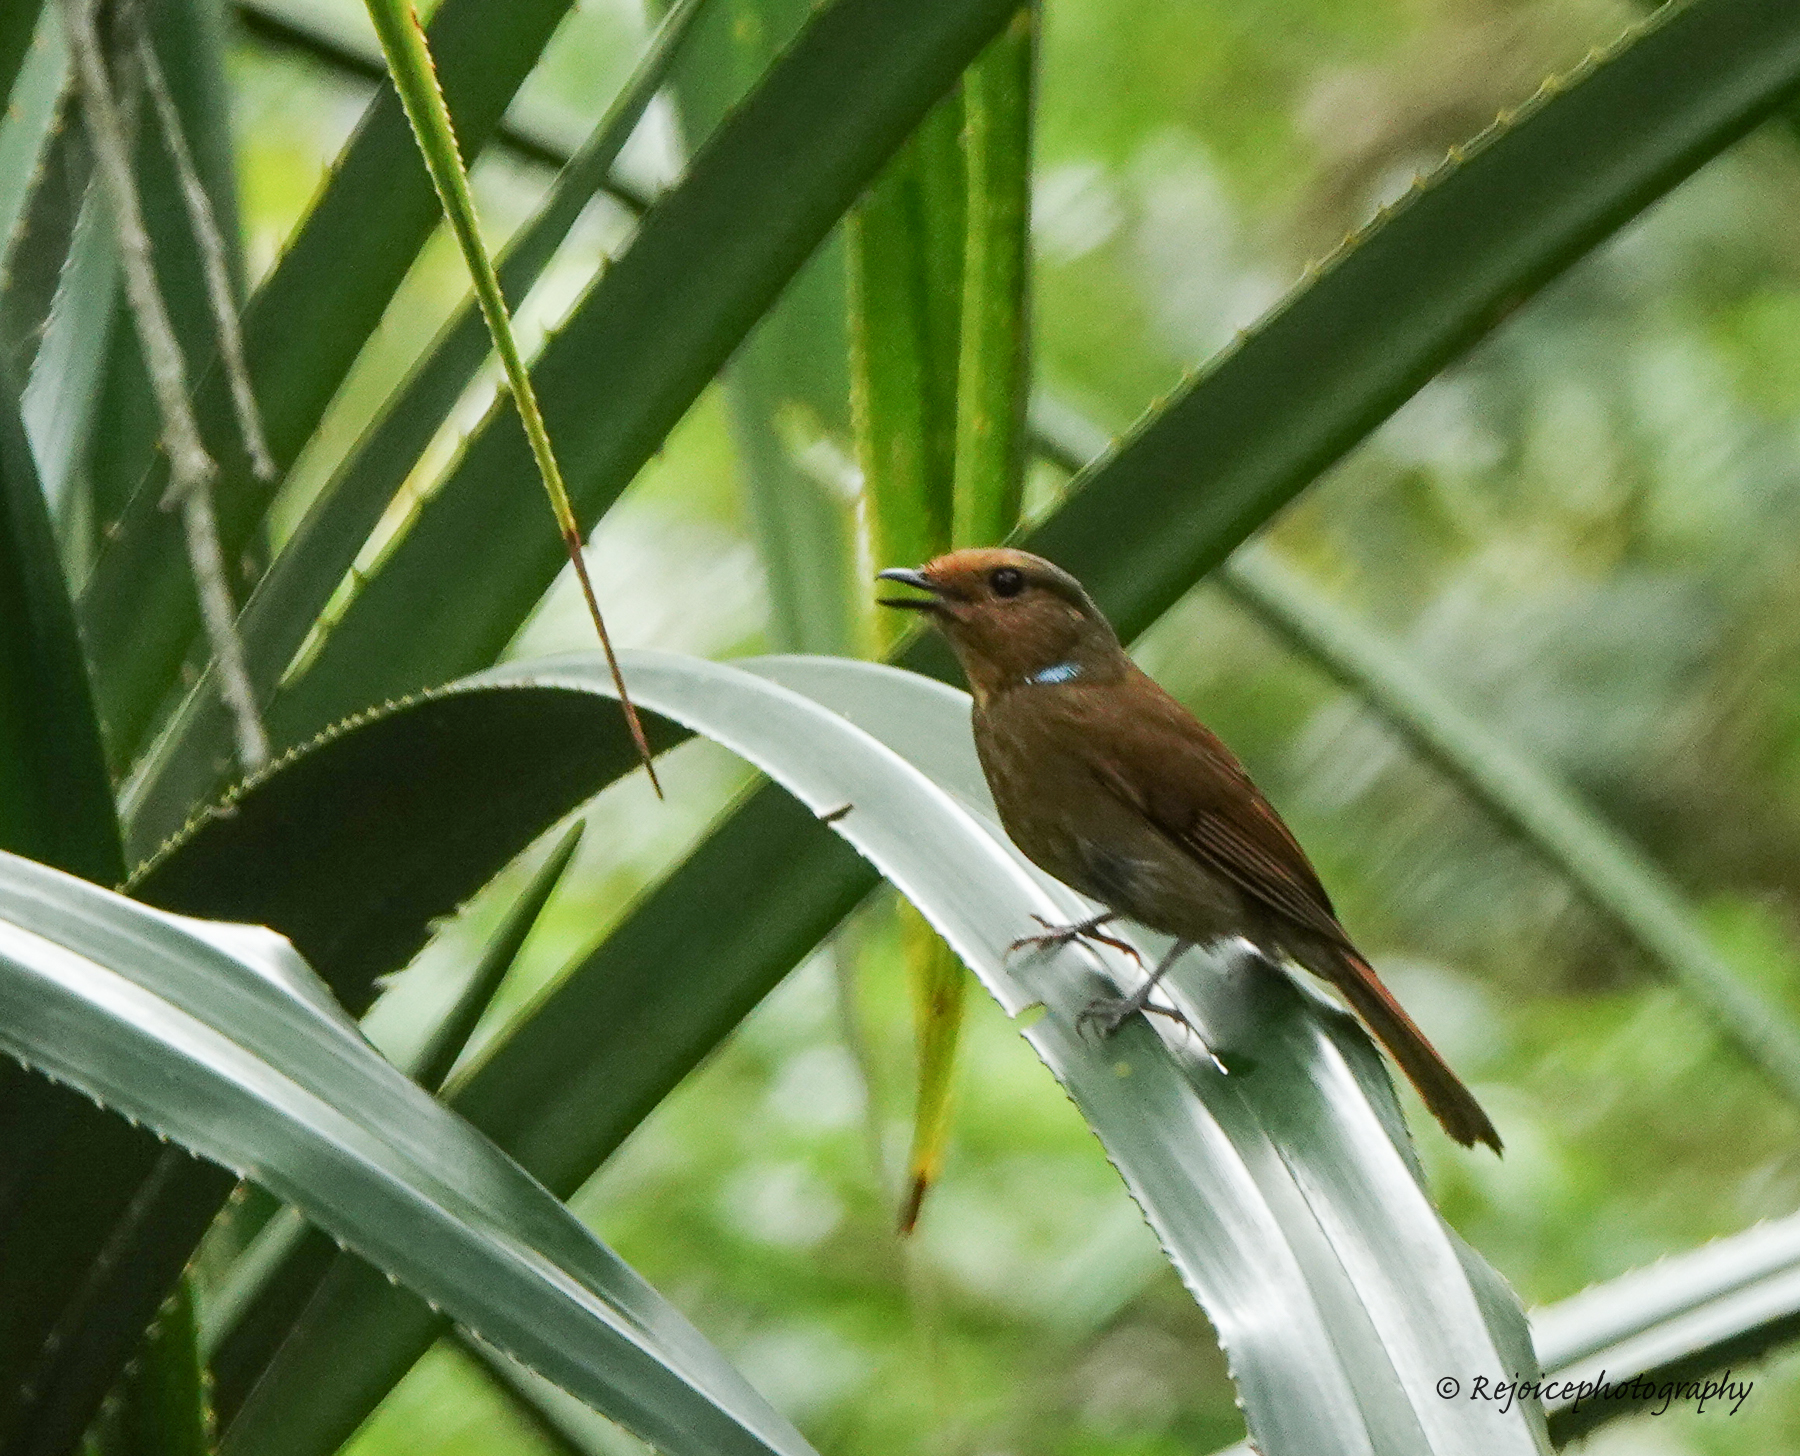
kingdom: Animalia
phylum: Chordata
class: Aves
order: Passeriformes
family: Muscicapidae
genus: Niltava
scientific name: Niltava grandis
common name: Large niltava
